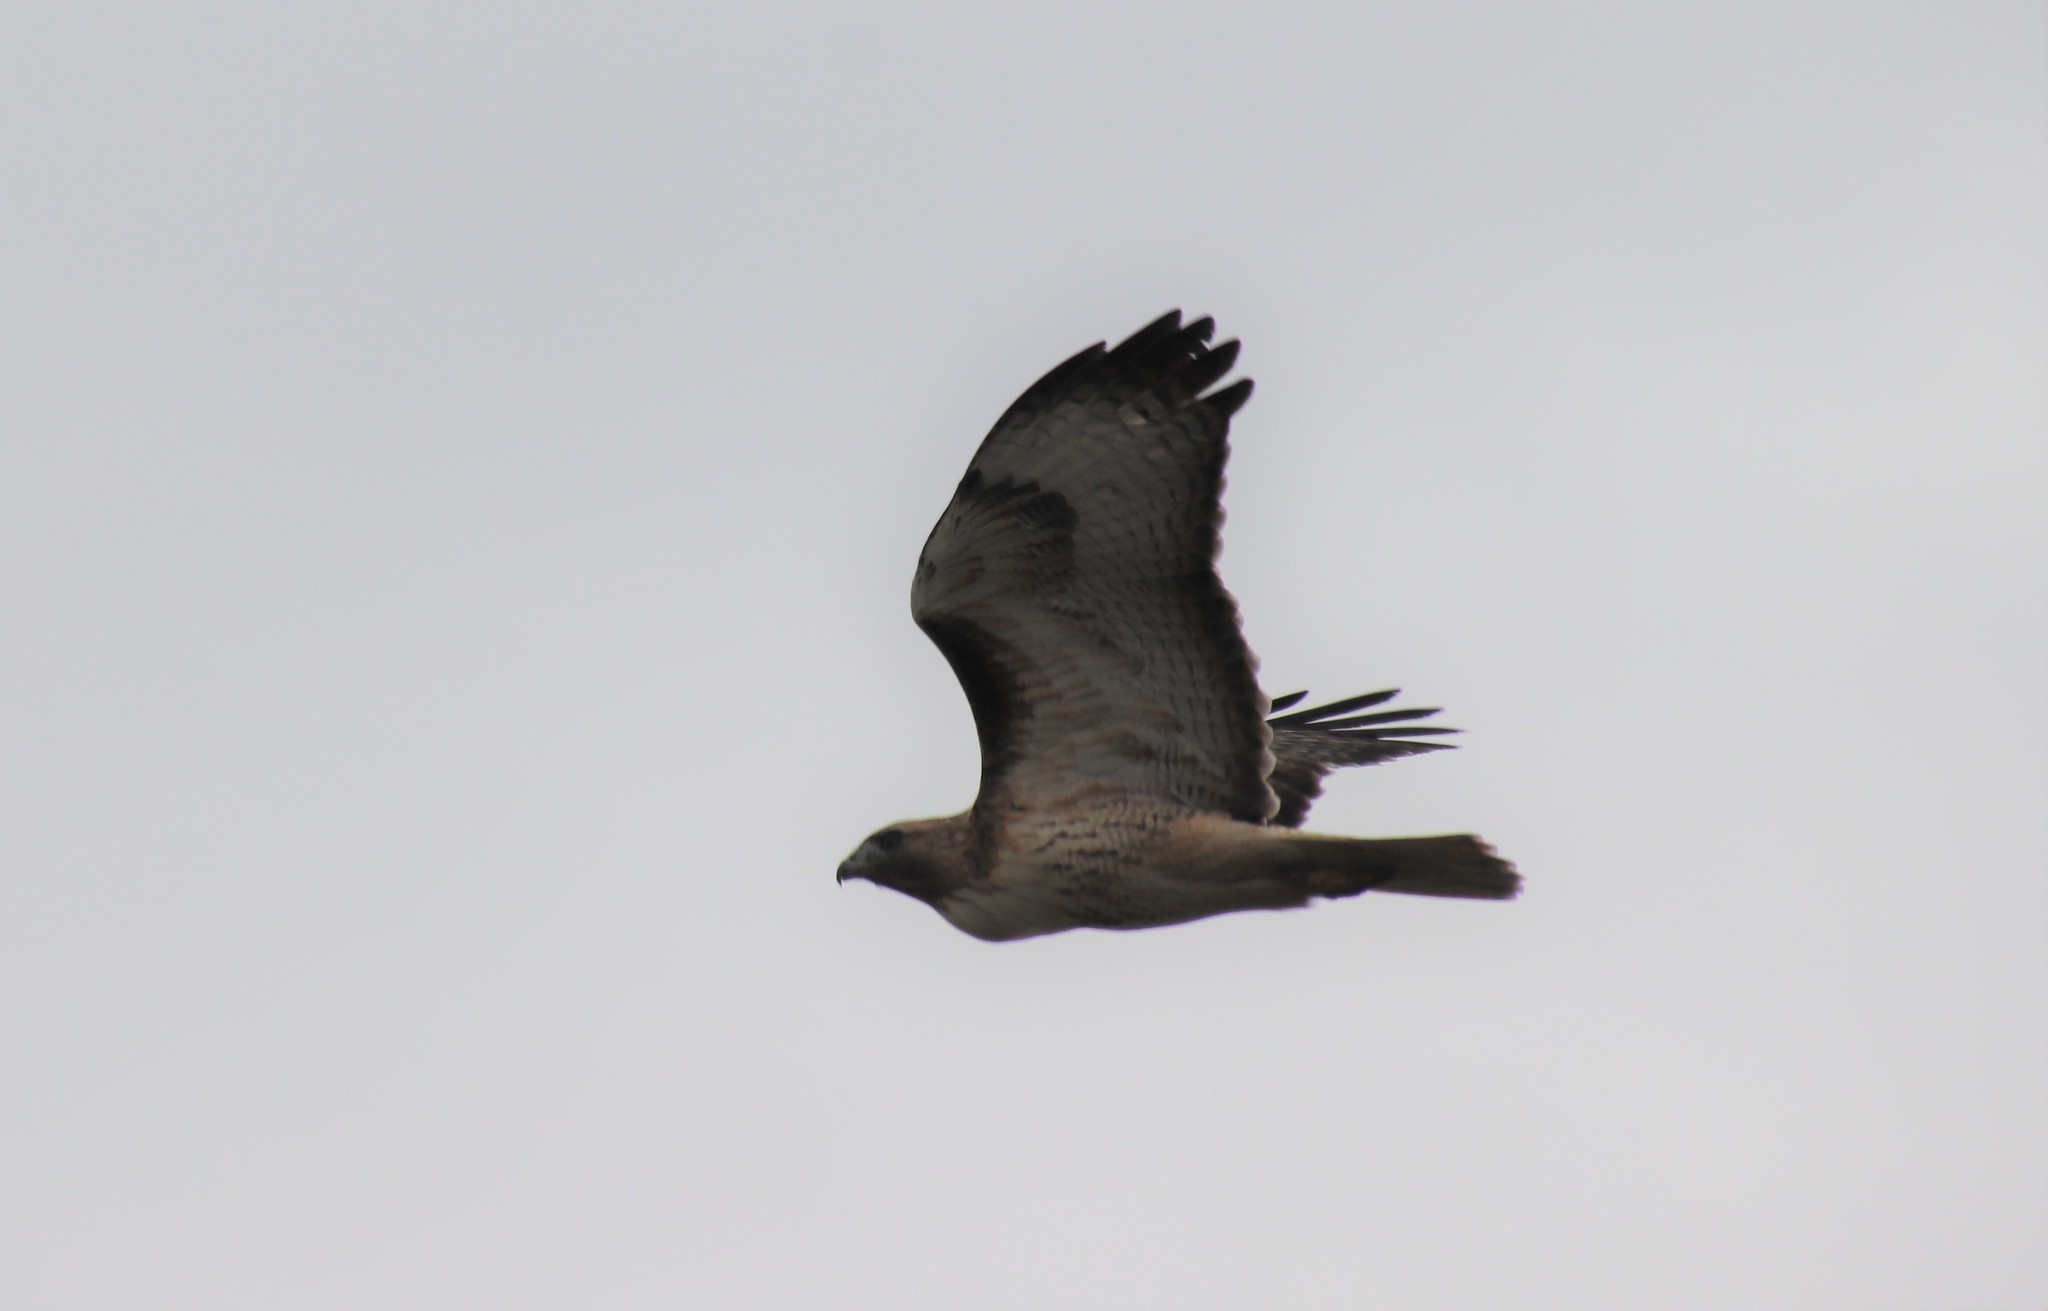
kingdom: Animalia
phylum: Chordata
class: Aves
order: Accipitriformes
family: Accipitridae
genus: Buteo
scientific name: Buteo jamaicensis
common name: Red-tailed hawk
